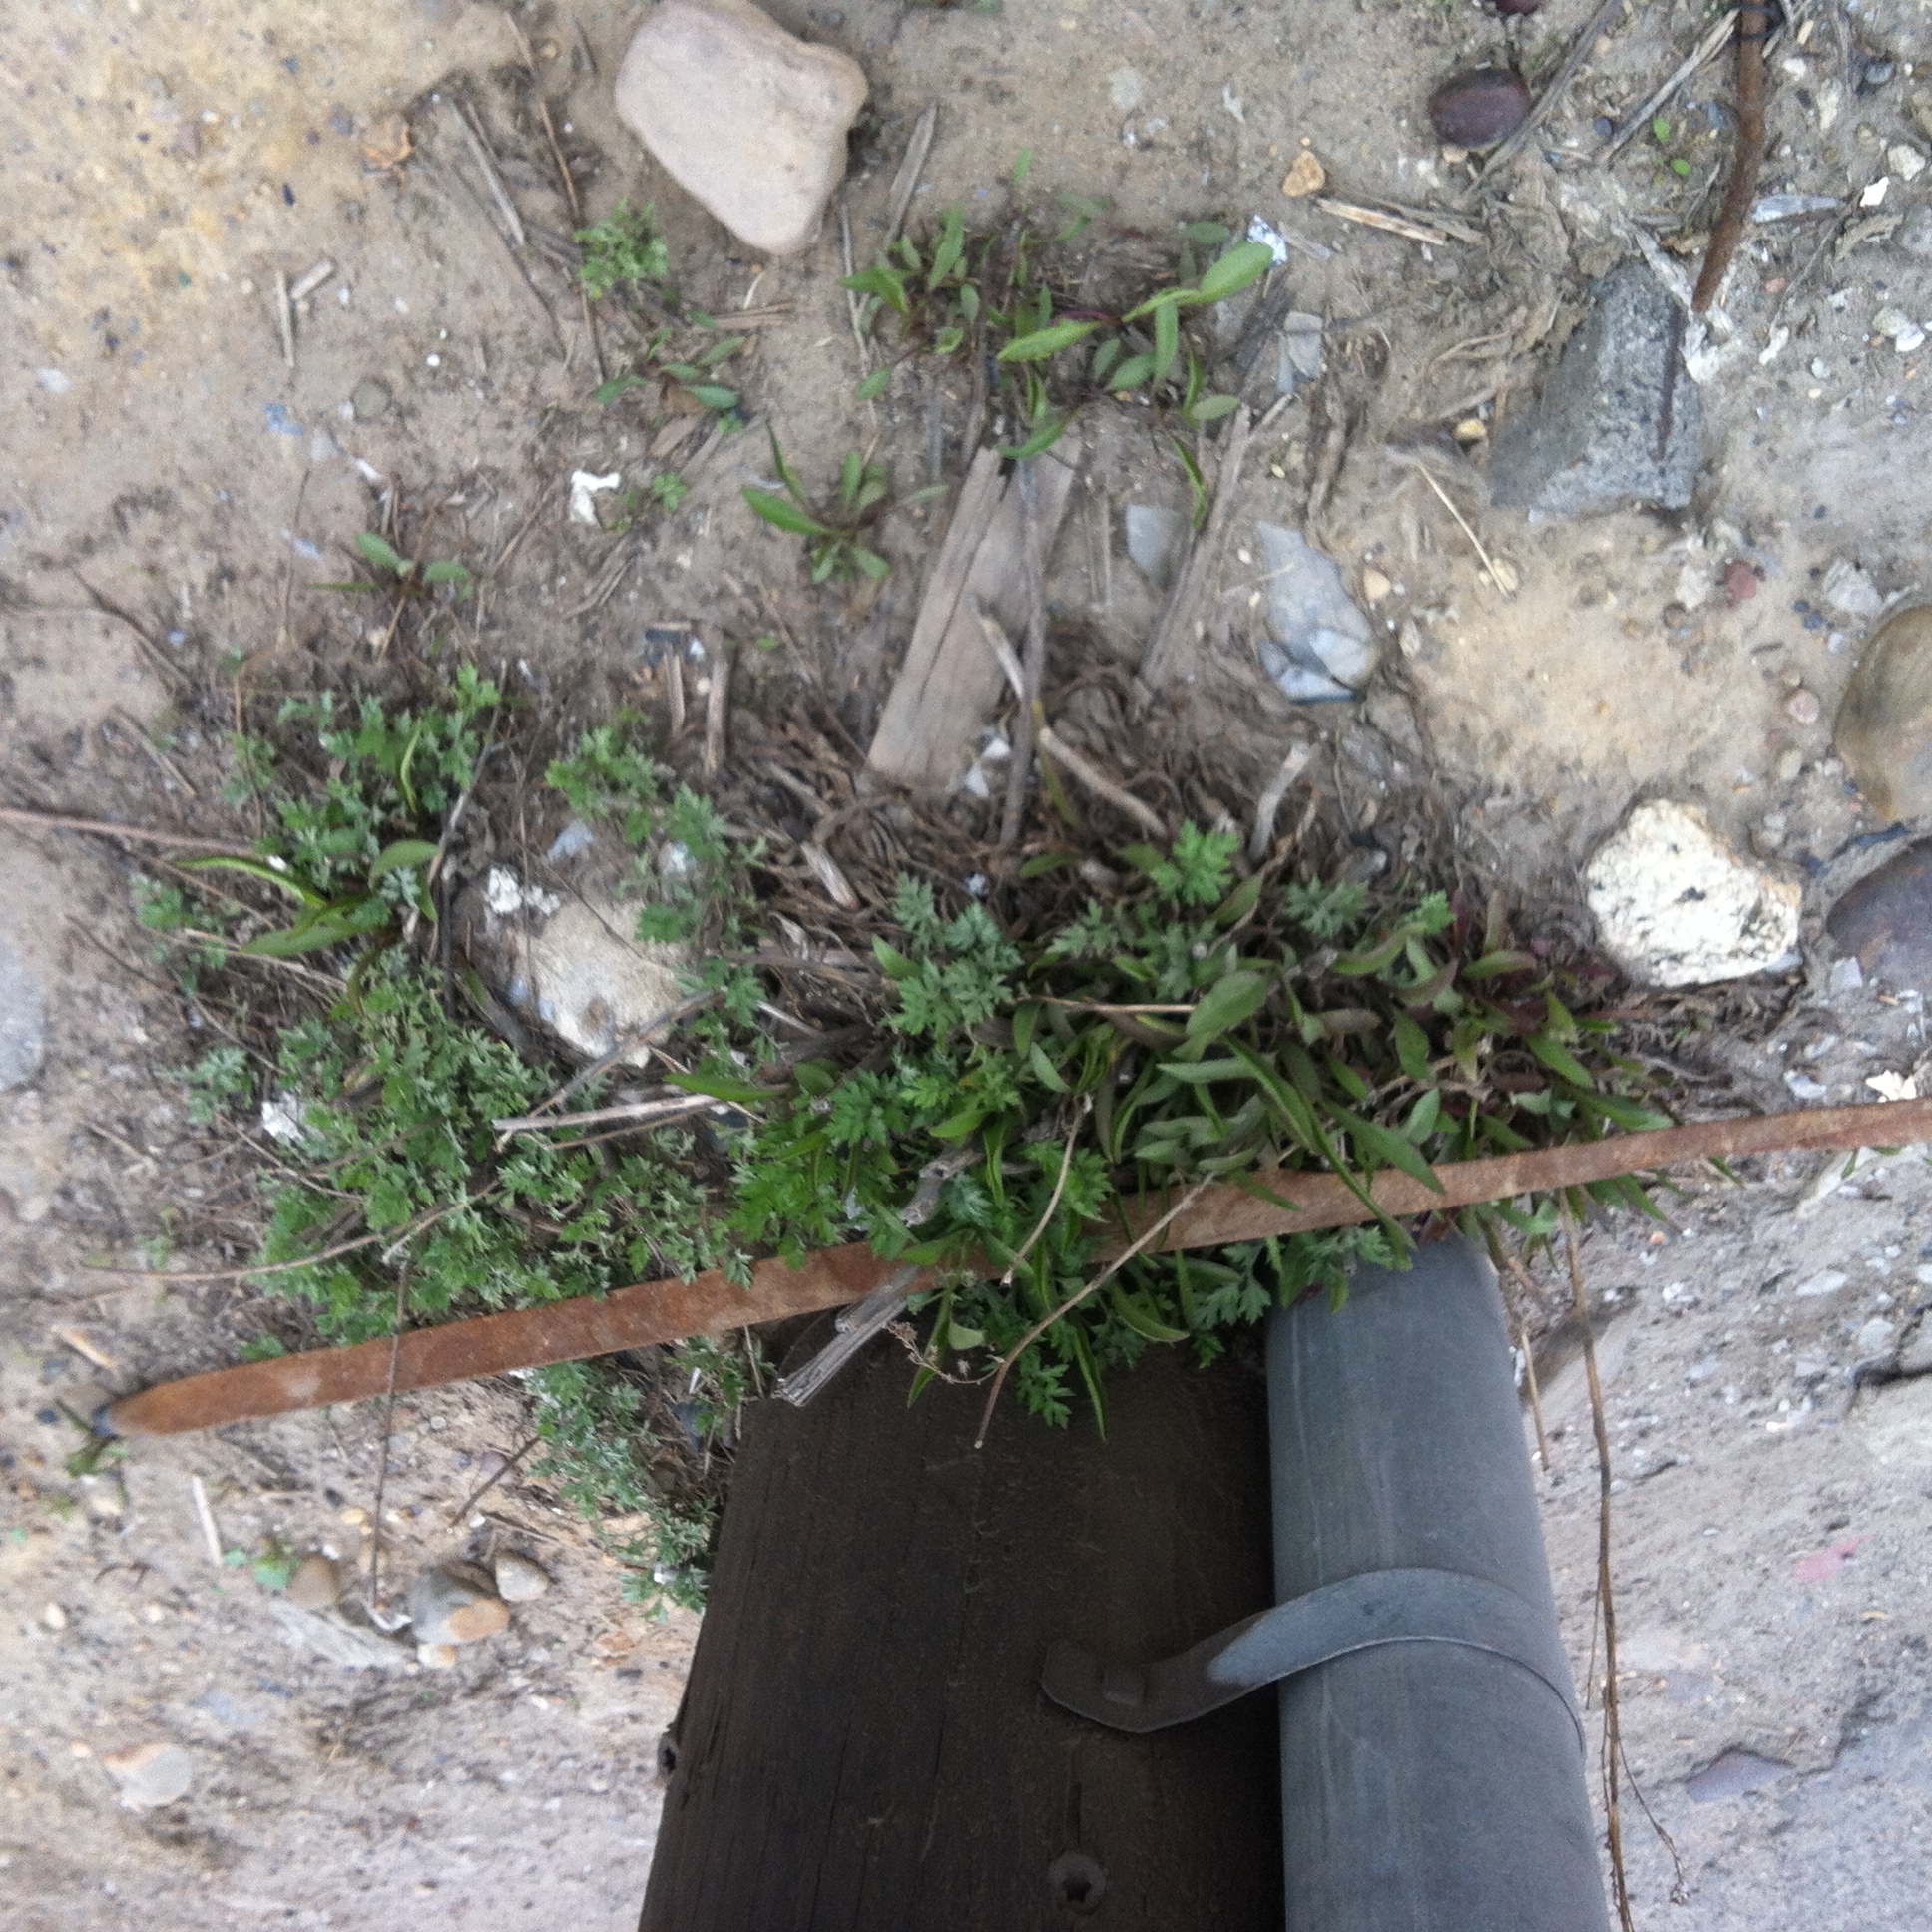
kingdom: Plantae
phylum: Tracheophyta
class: Magnoliopsida
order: Asterales
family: Asteraceae
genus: Solidago
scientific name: Solidago sempervirens
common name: Salt-marsh goldenrod
